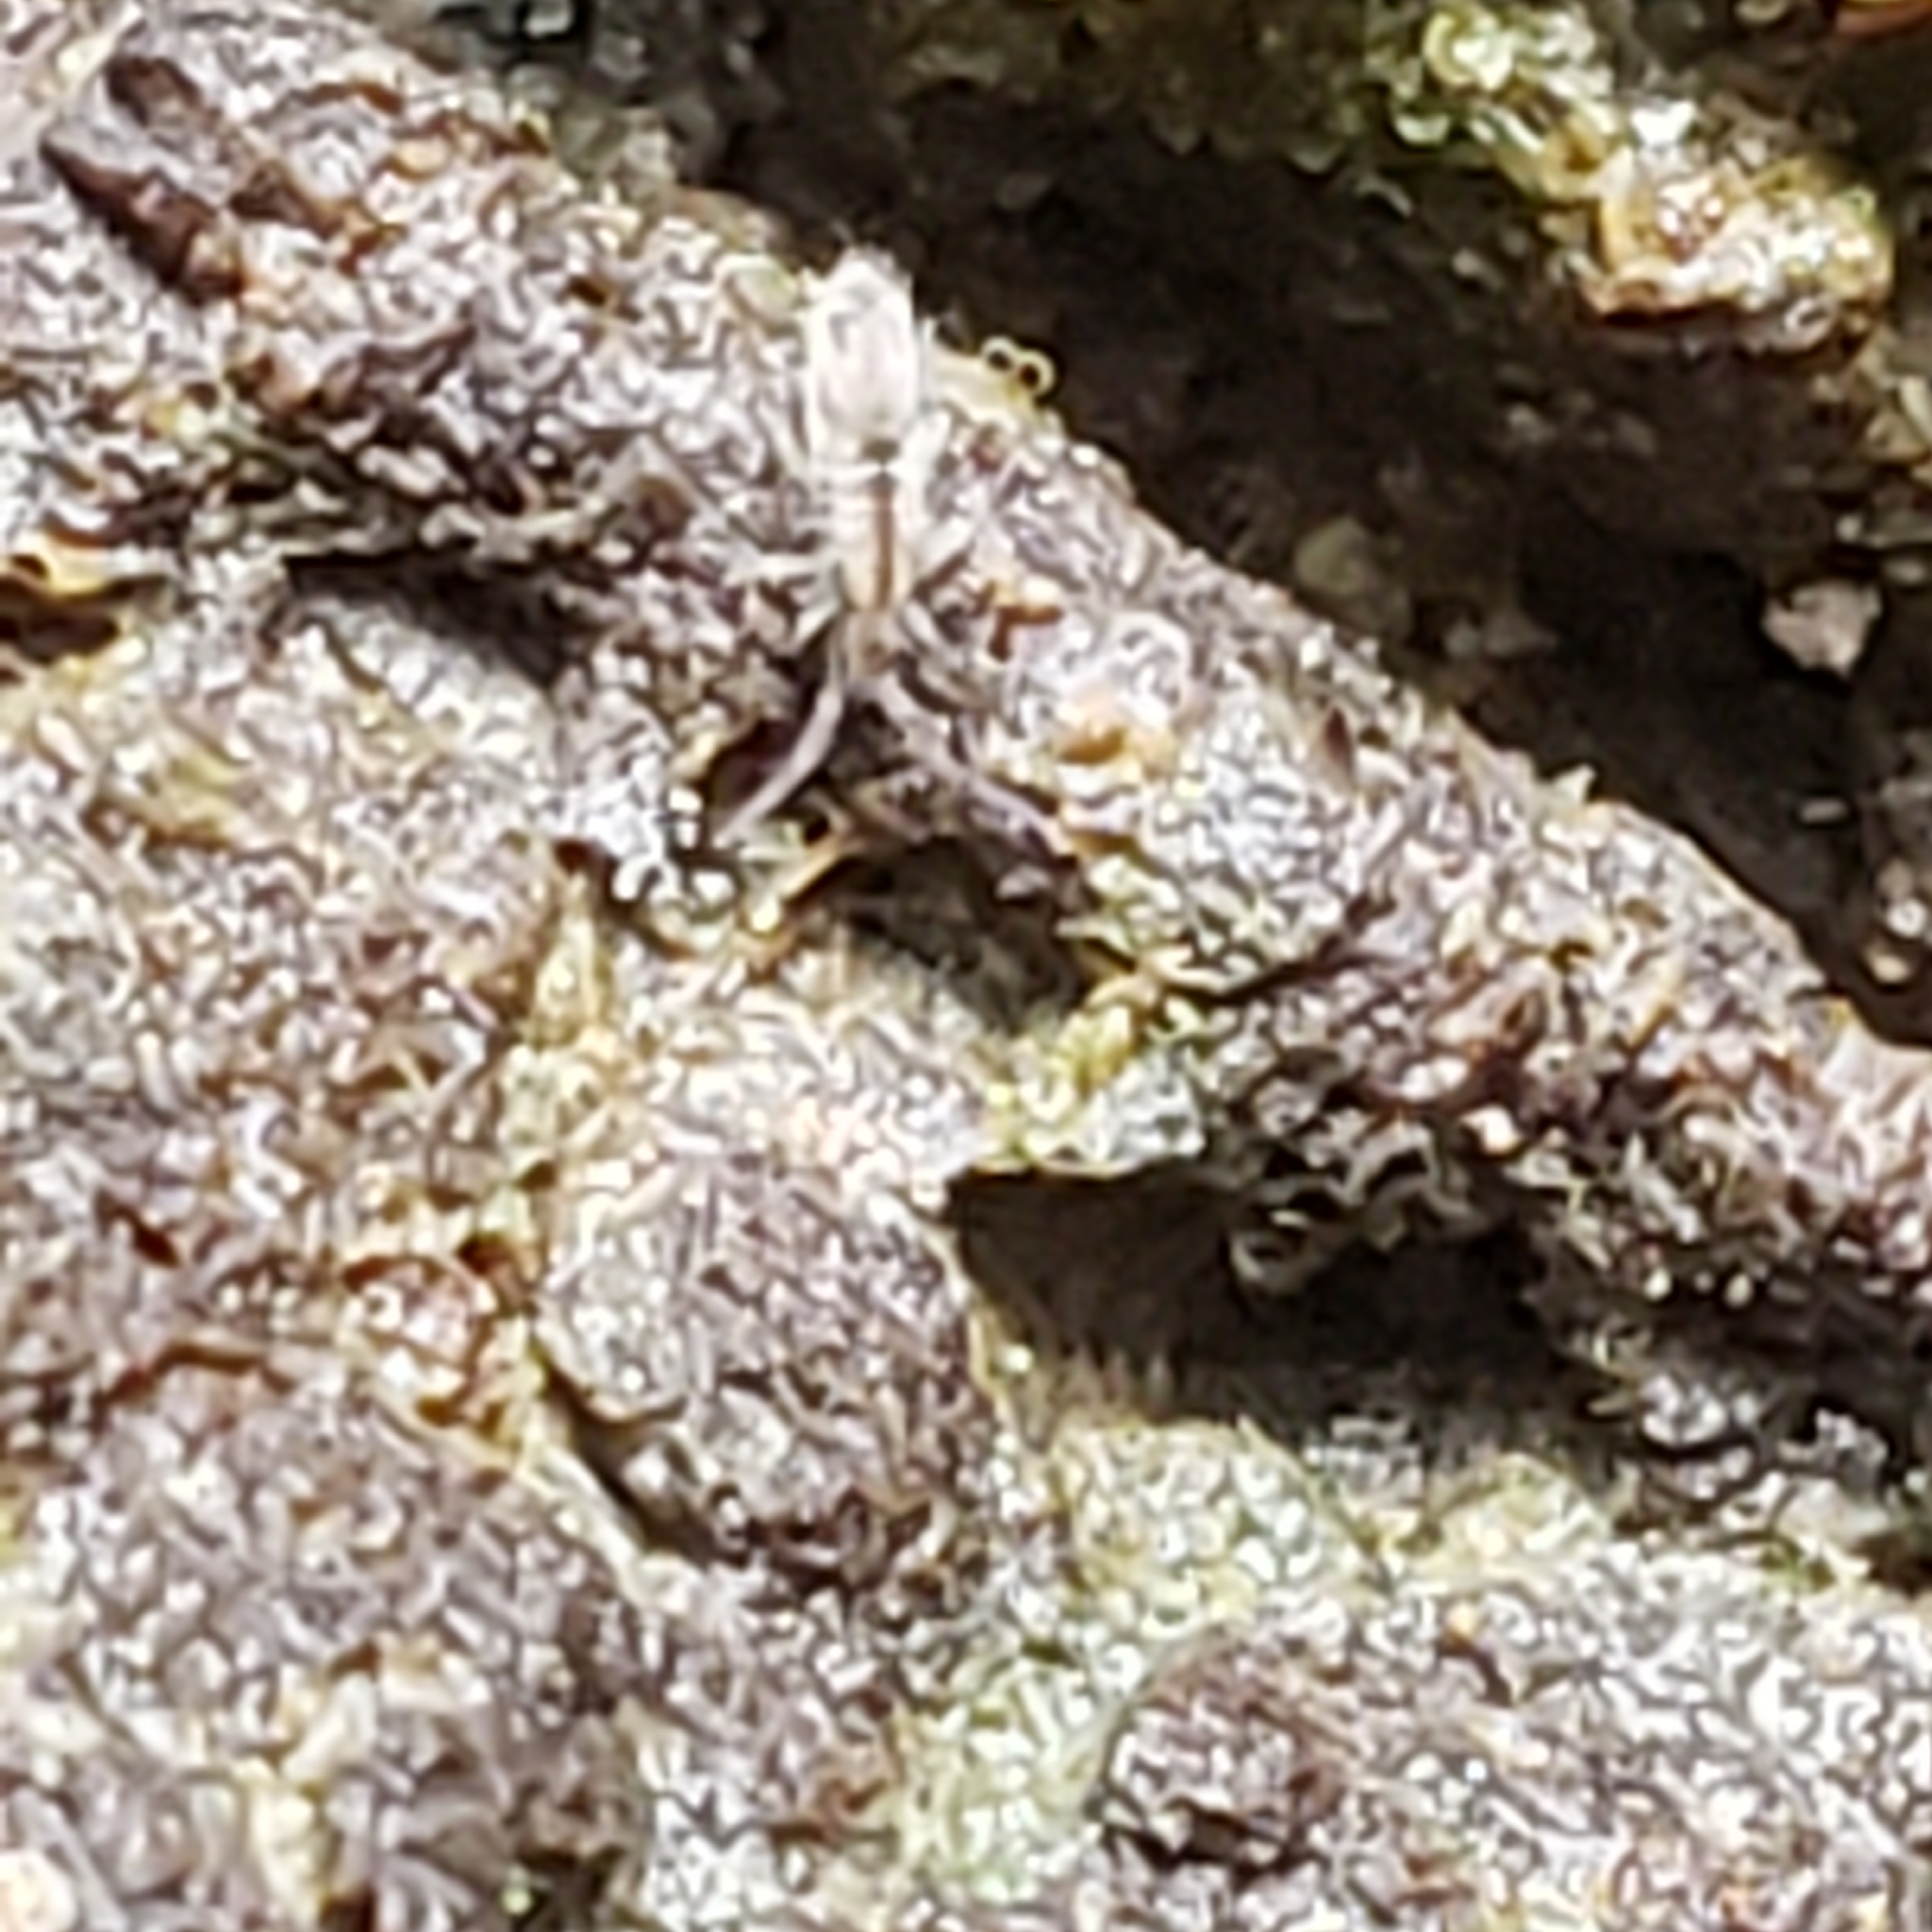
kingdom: Animalia
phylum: Arthropoda
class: Collembola
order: Entomobryomorpha
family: Entomobryidae
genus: Entomobrya
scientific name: Entomobrya unostrigata
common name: Springtail
